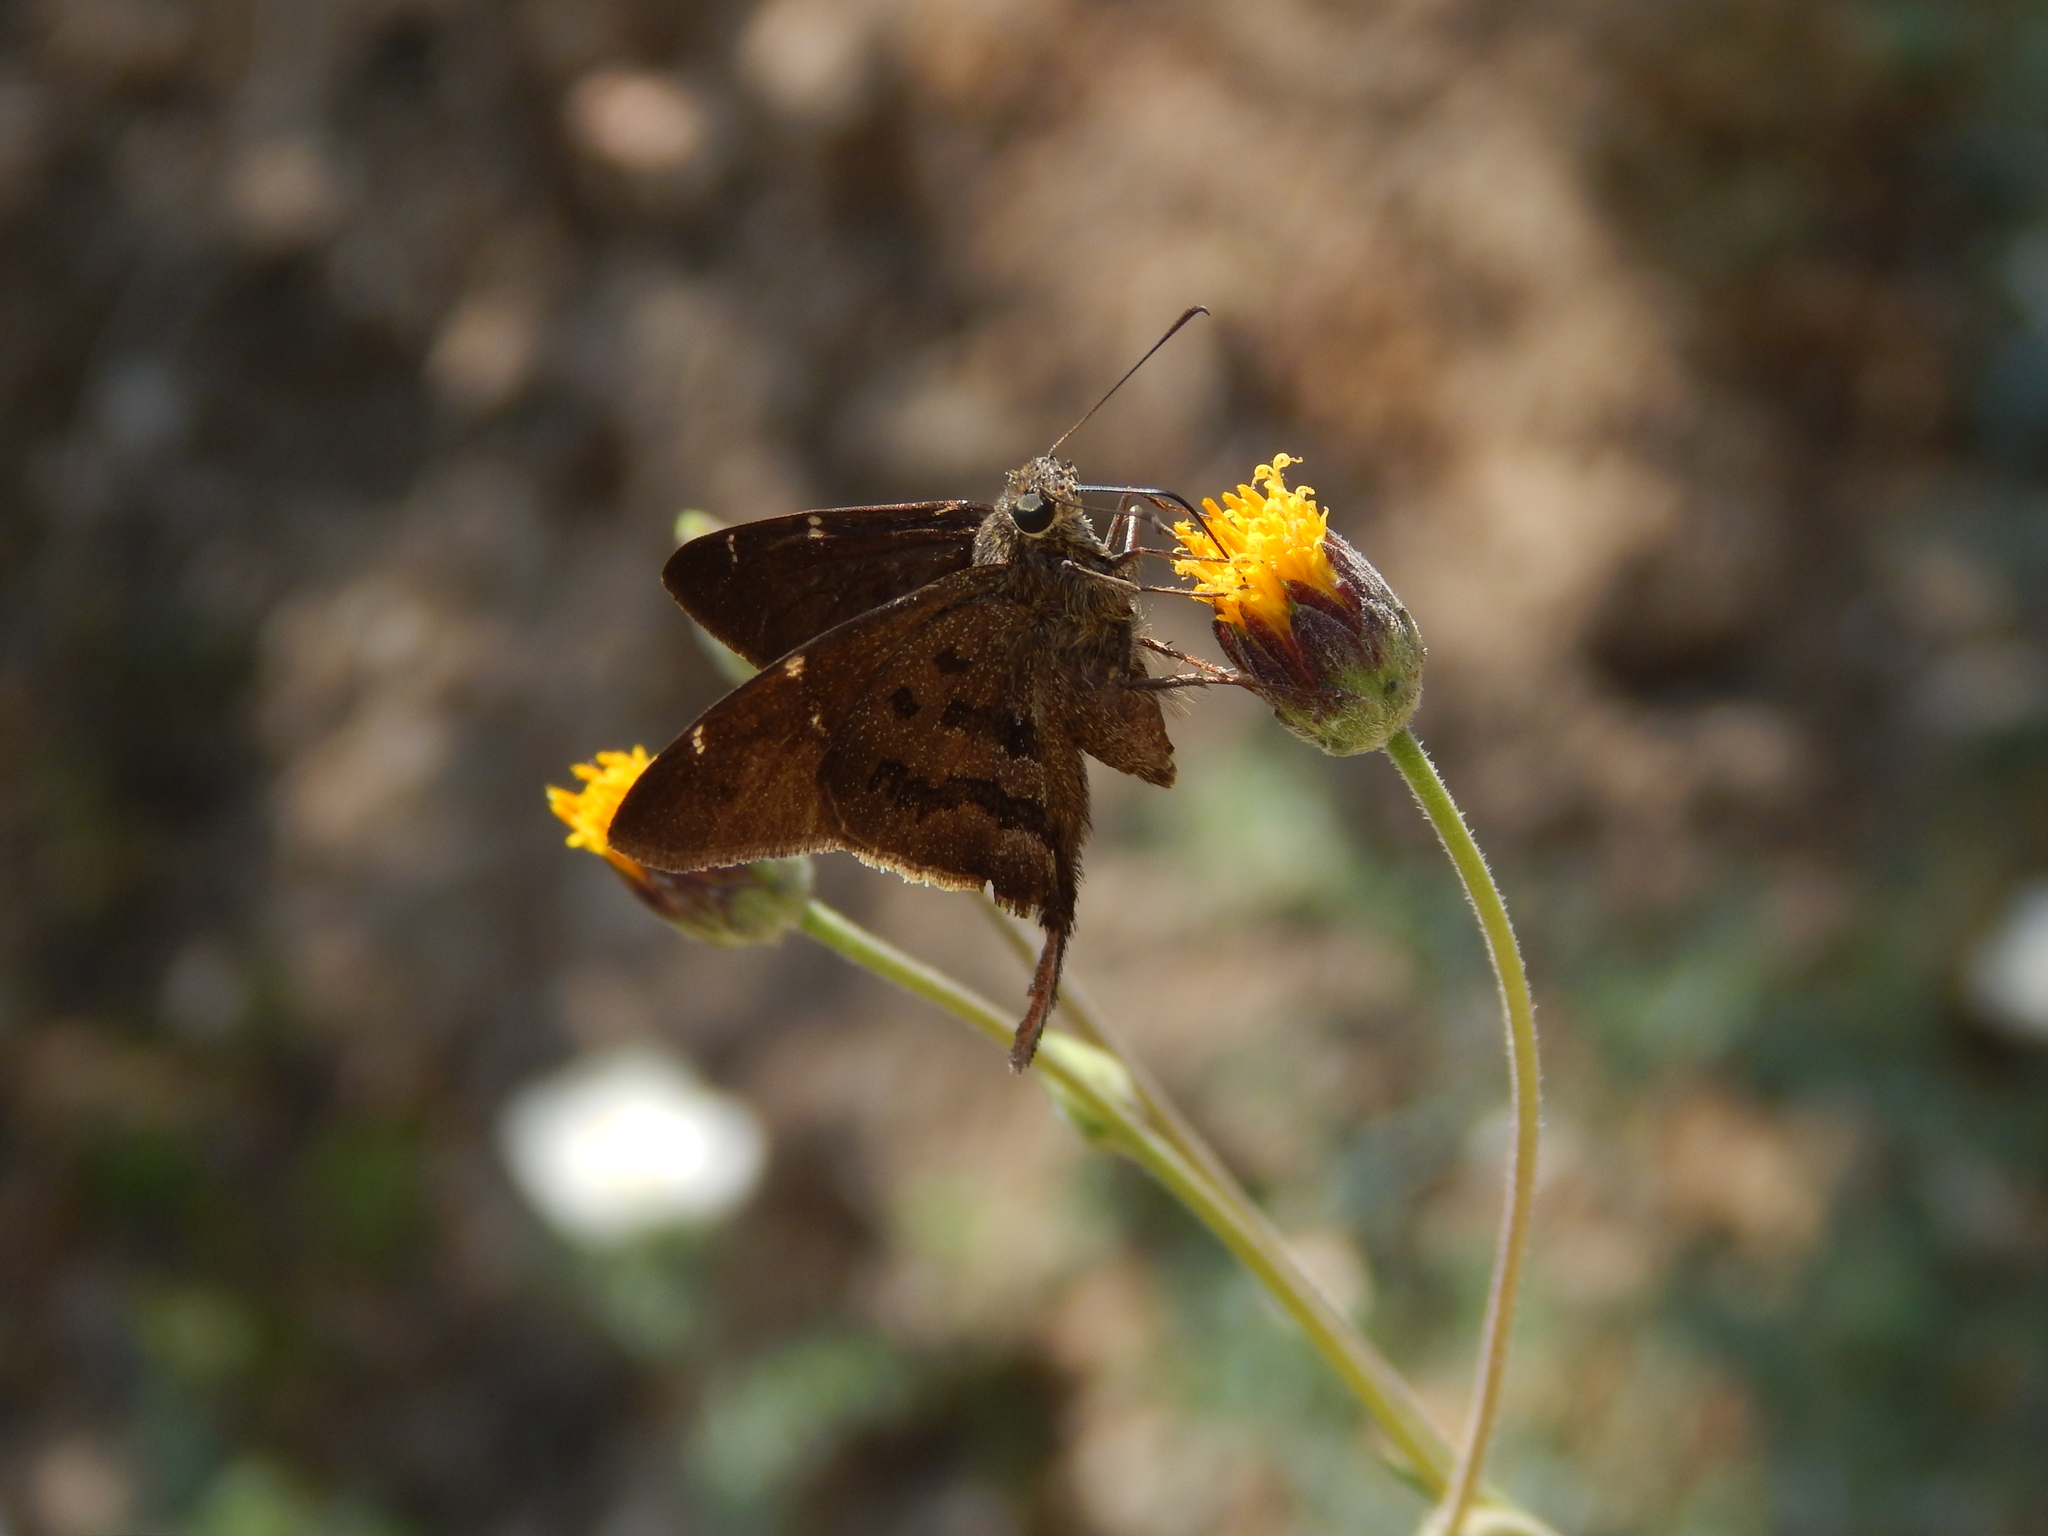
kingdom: Animalia
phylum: Arthropoda
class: Insecta
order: Lepidoptera
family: Hesperiidae
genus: Urbanus
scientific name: Urbanus procne
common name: Brown longtail
